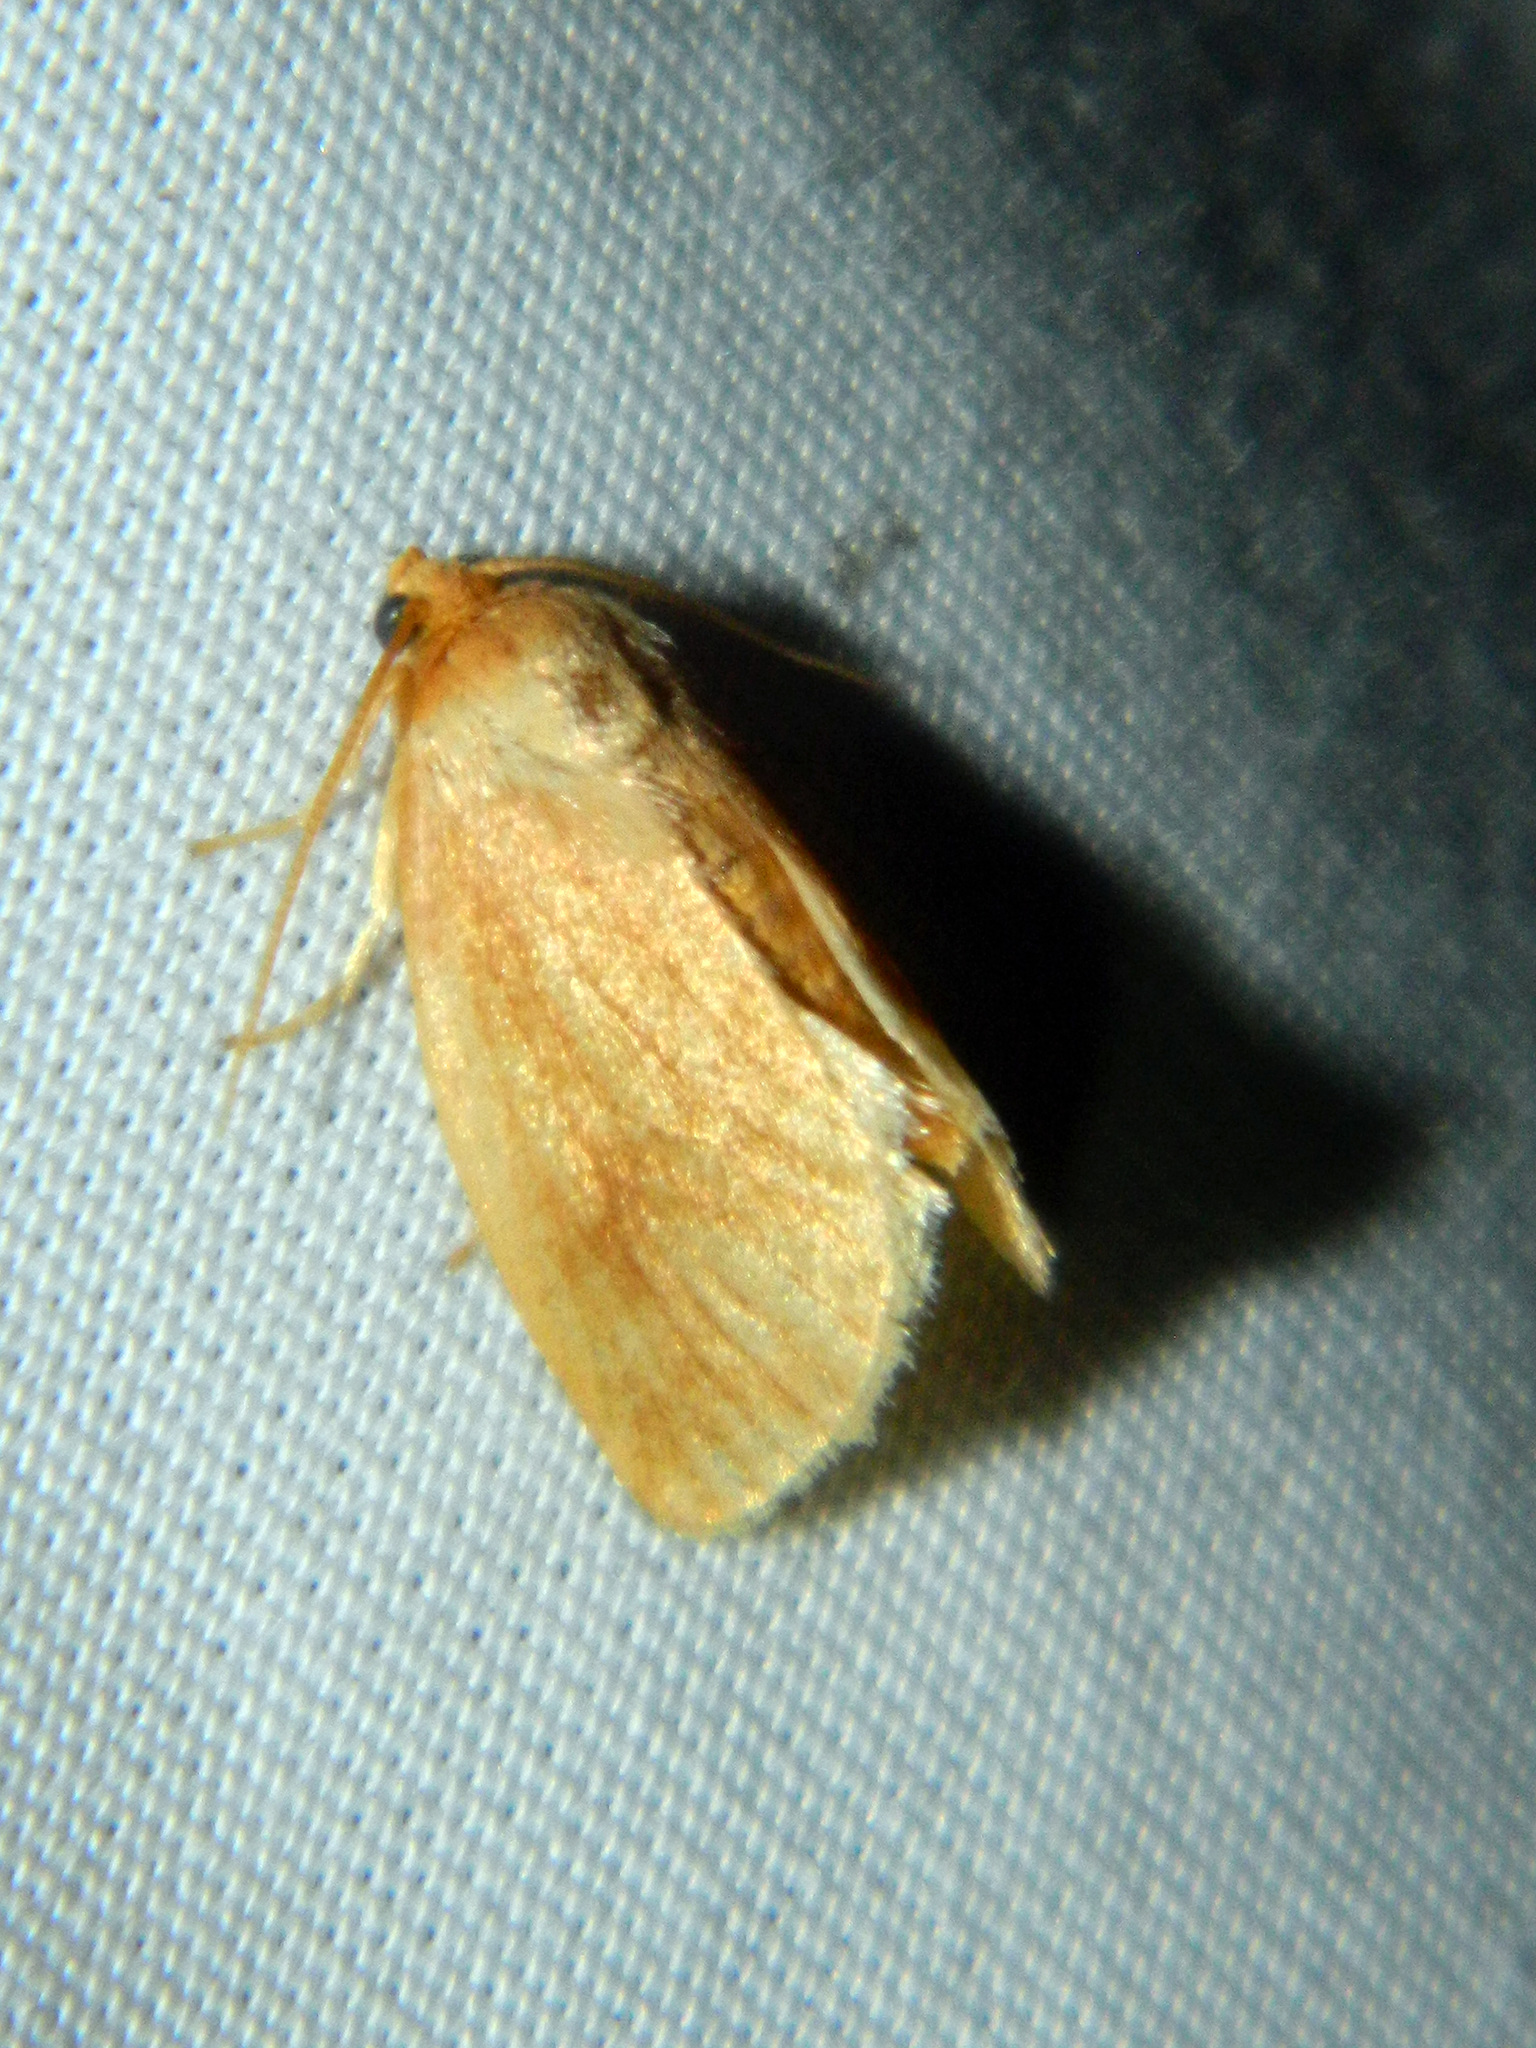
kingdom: Animalia
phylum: Arthropoda
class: Insecta
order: Lepidoptera
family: Limacodidae
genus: Tortricidia
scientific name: Tortricidia testacea
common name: Early button slug moth
